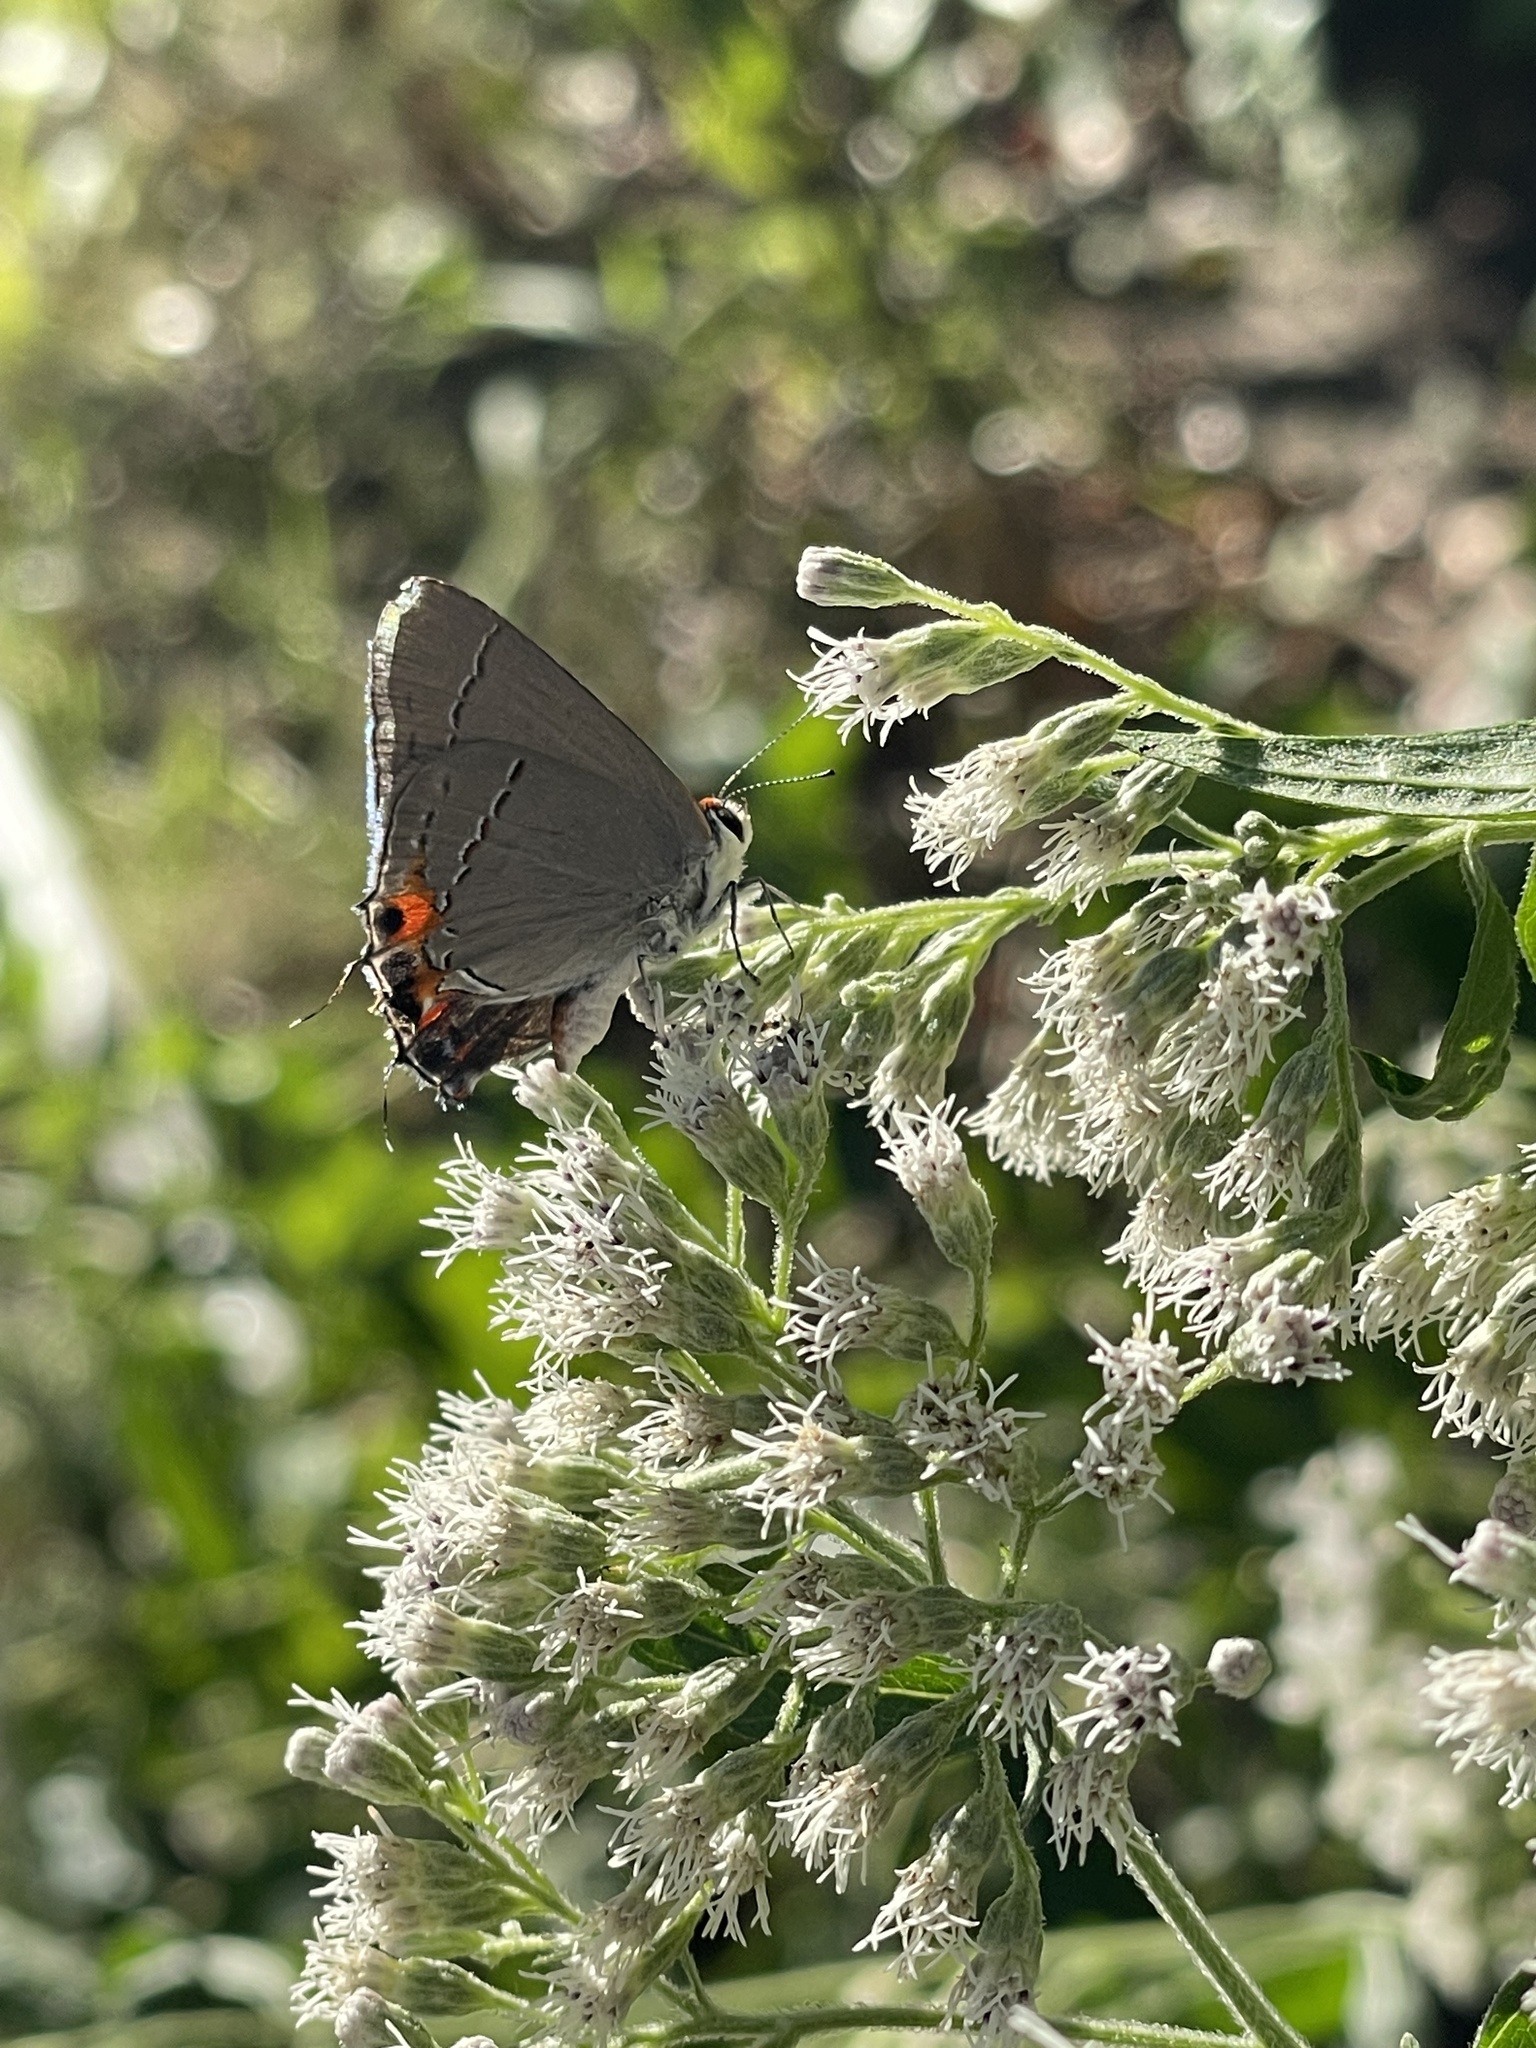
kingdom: Animalia
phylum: Arthropoda
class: Insecta
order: Lepidoptera
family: Lycaenidae
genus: Strymon
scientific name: Strymon melinus
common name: Gray hairstreak
